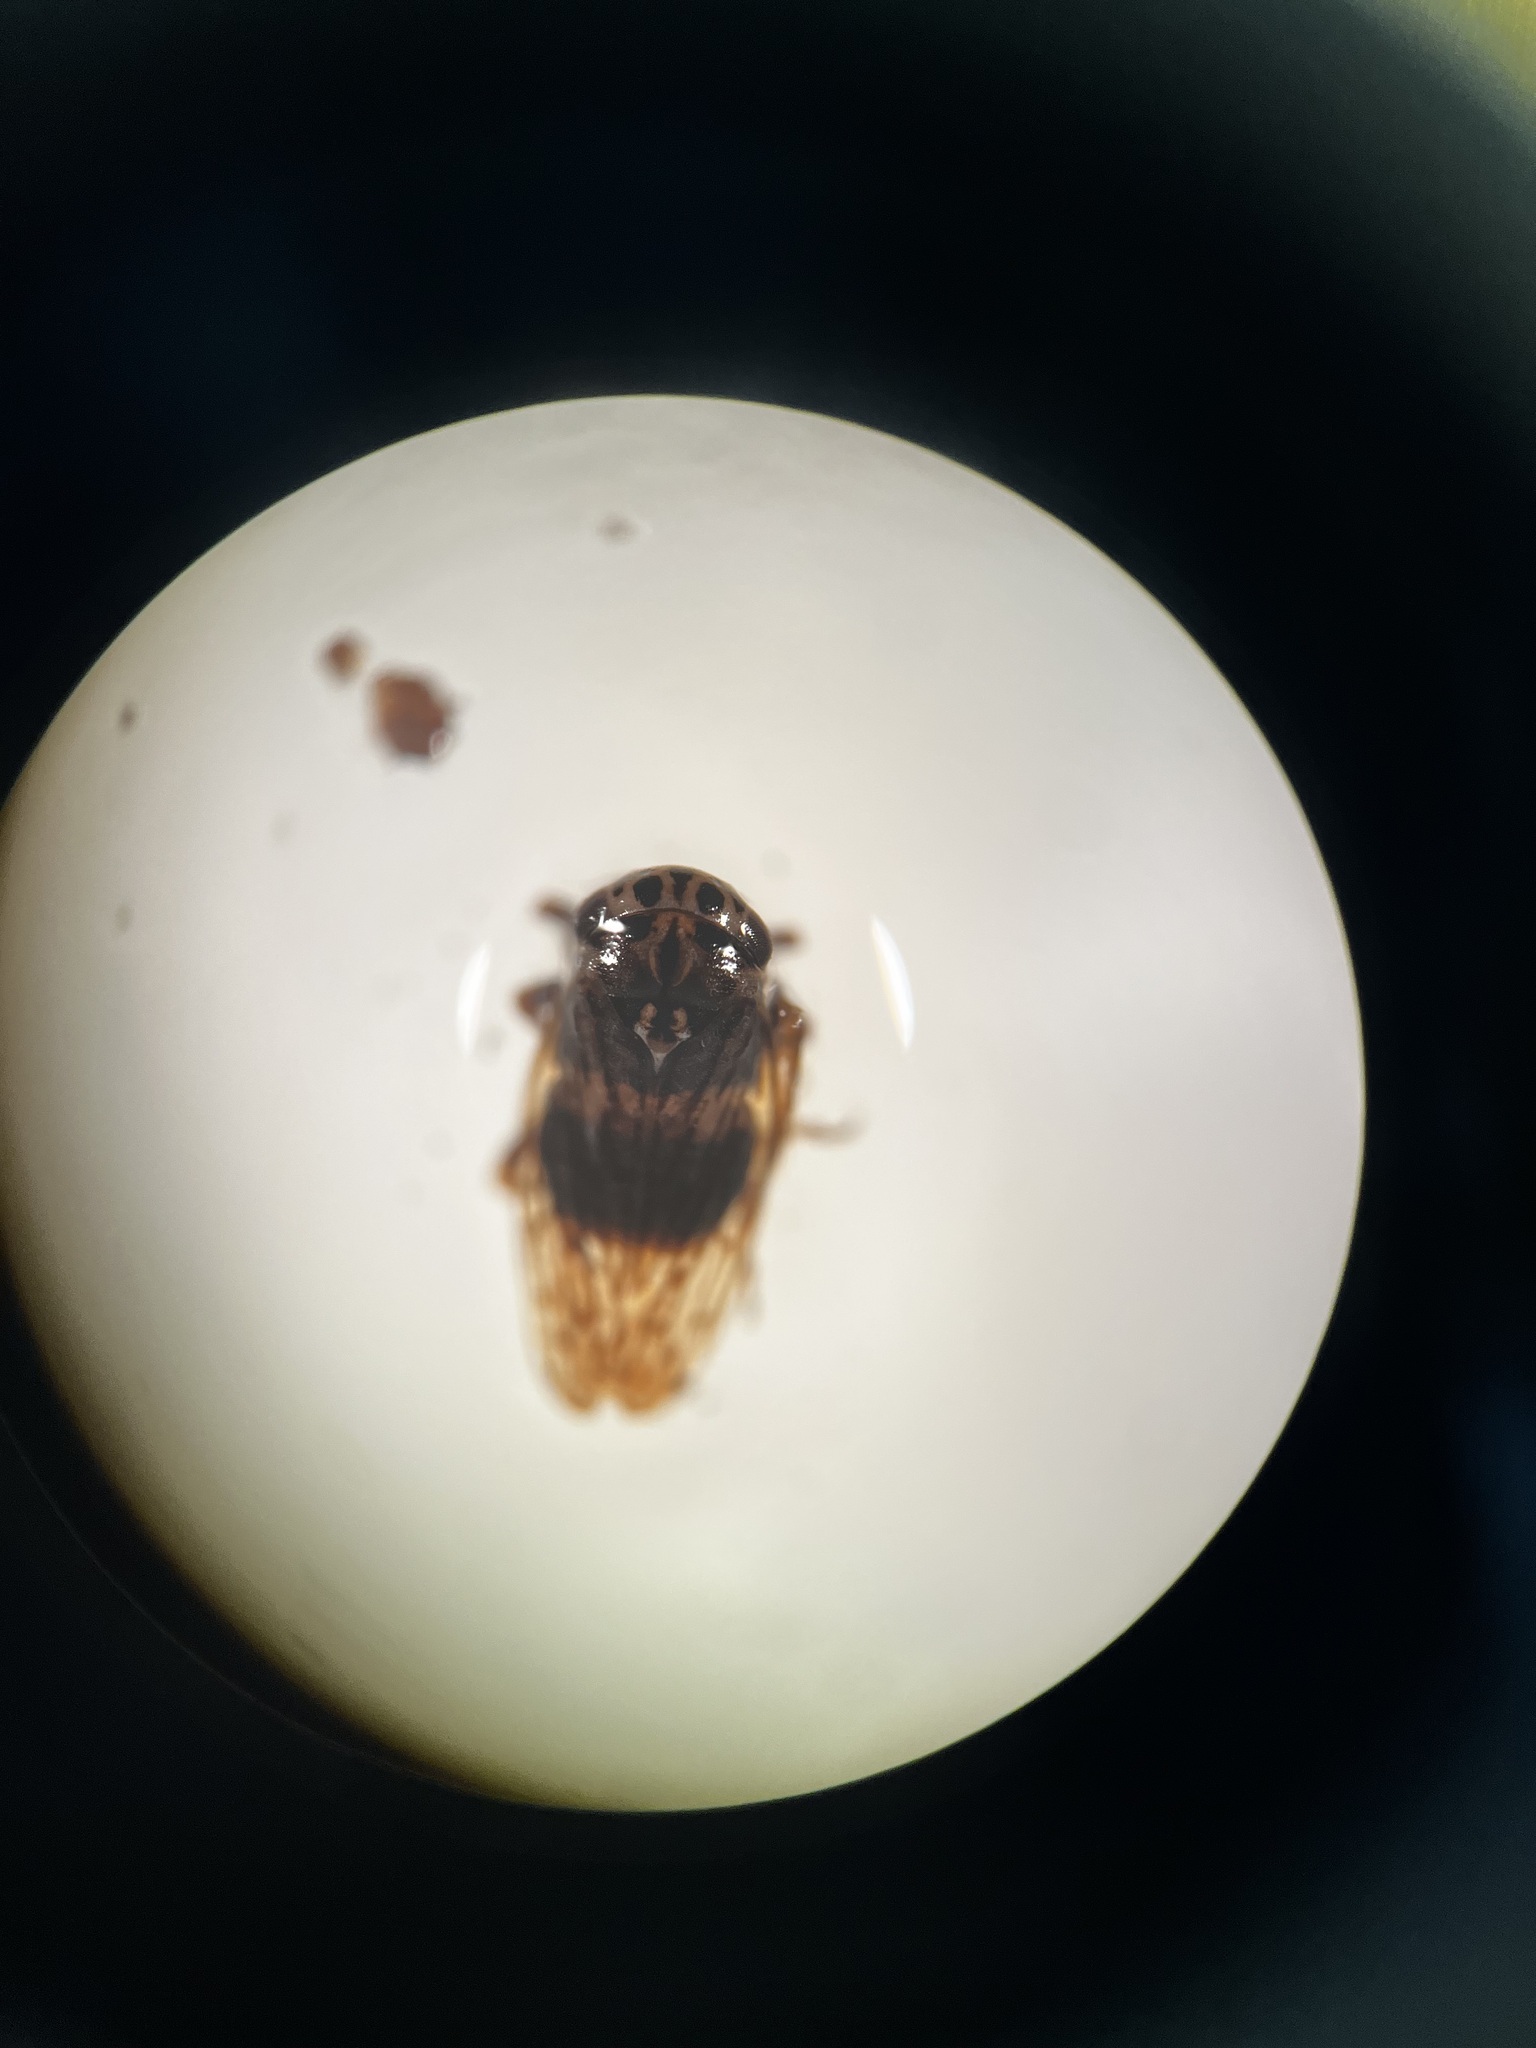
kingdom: Animalia
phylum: Arthropoda
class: Insecta
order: Hemiptera
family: Cicadellidae
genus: Anaceratagallia
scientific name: Anaceratagallia ribauti
